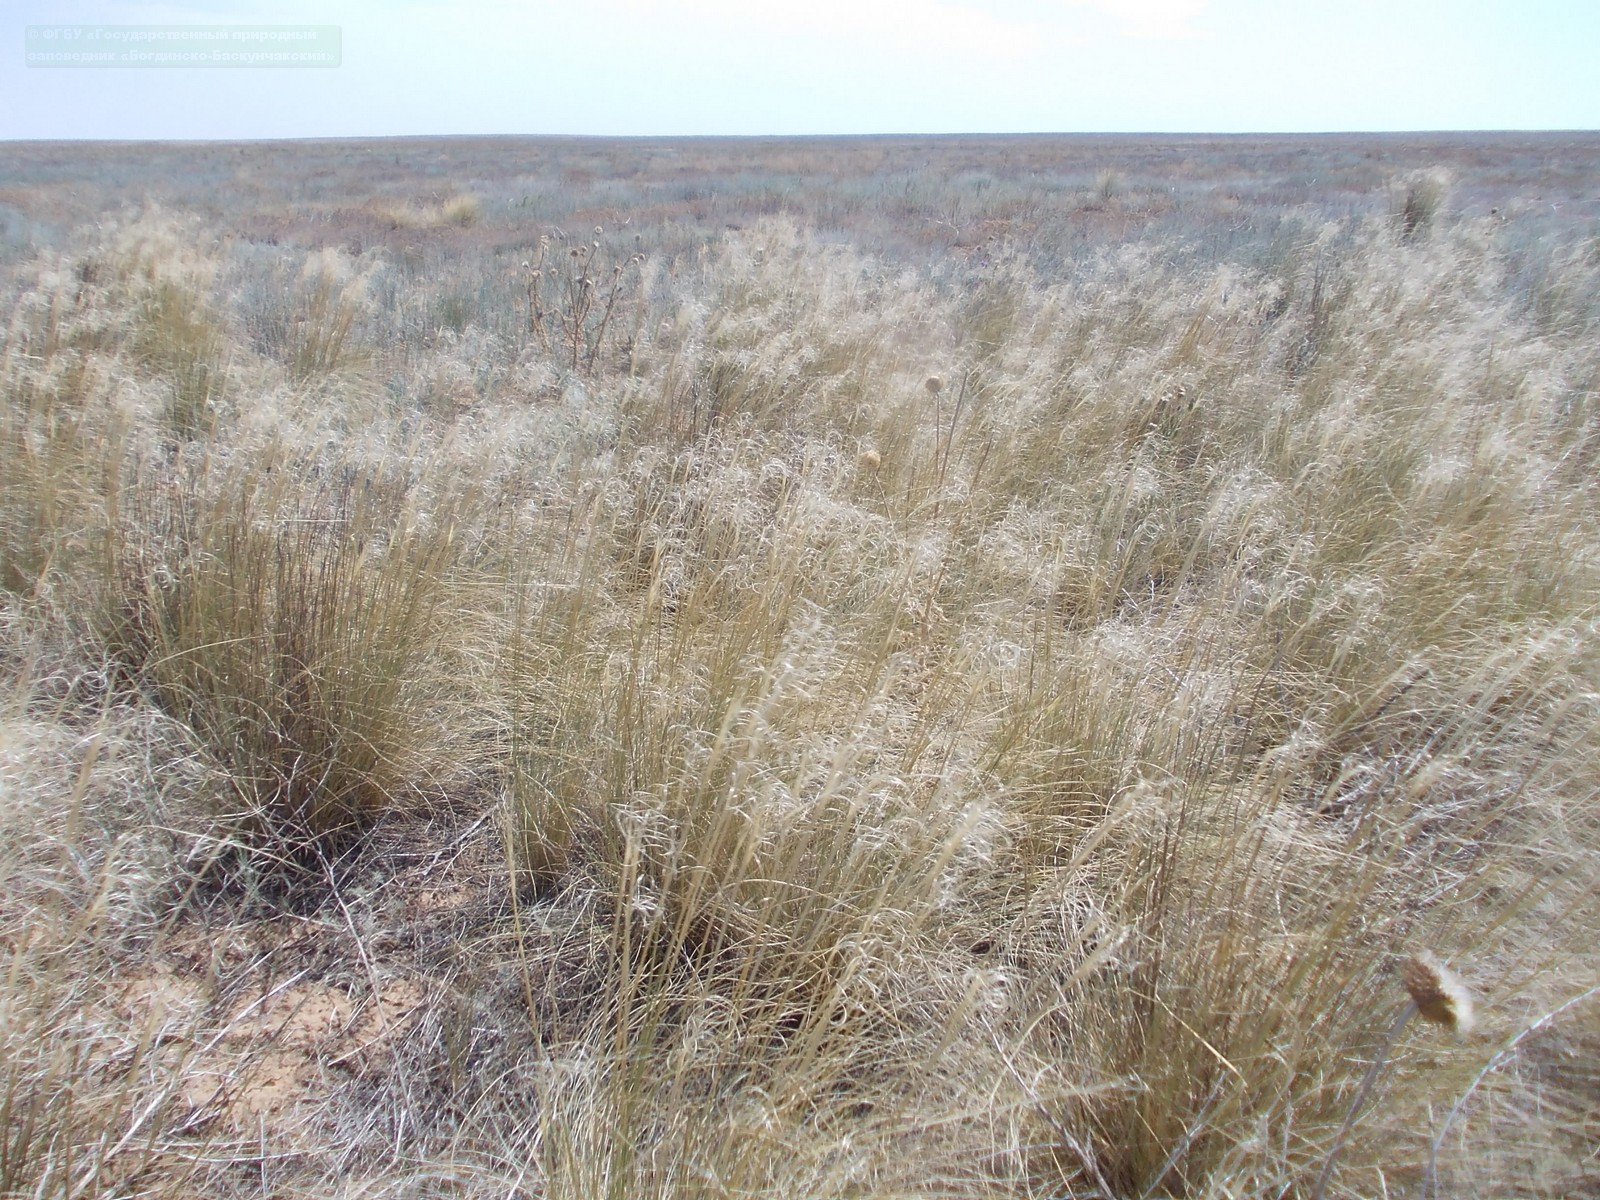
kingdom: Plantae
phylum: Tracheophyta
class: Liliopsida
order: Poales
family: Poaceae
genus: Stipa
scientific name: Stipa sareptana
